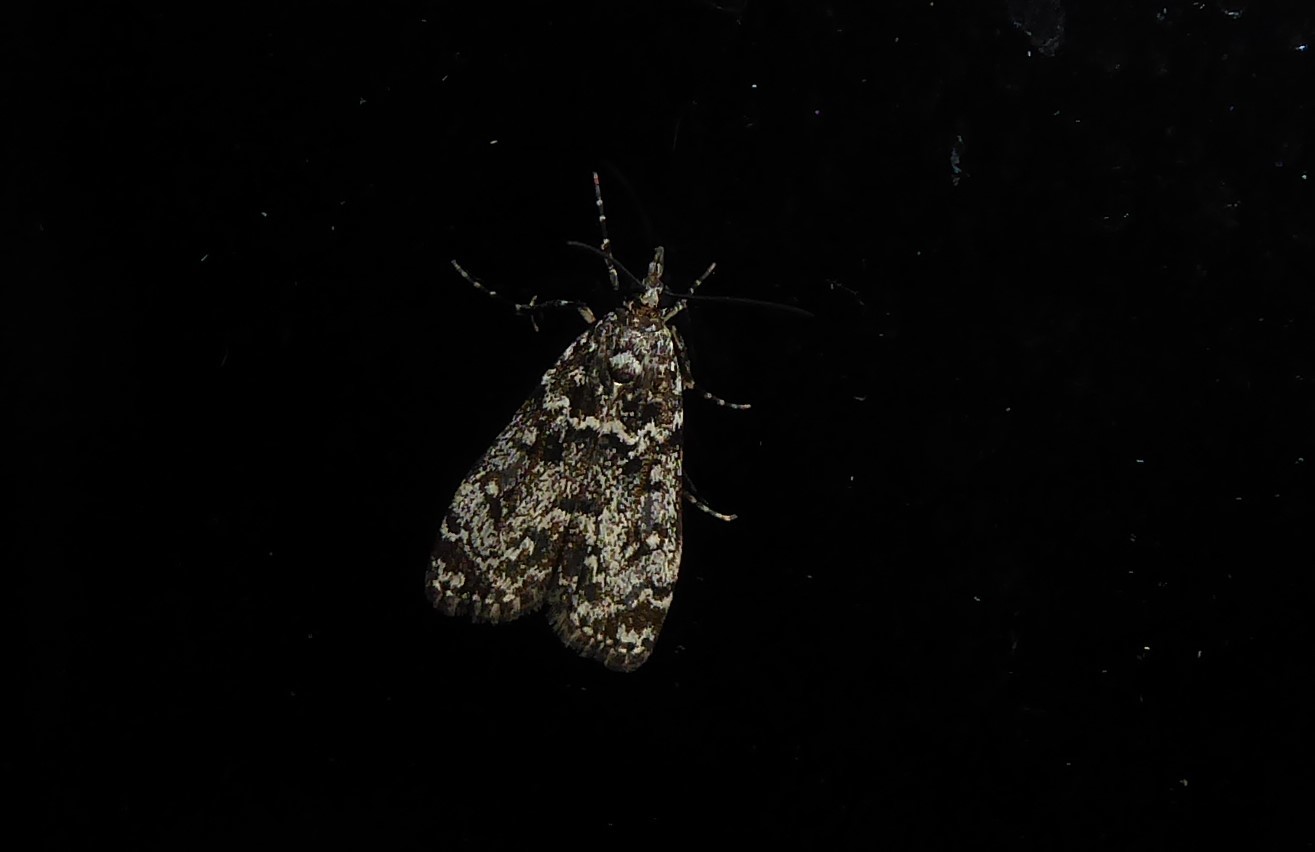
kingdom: Animalia
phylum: Arthropoda
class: Insecta
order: Lepidoptera
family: Crambidae
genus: Eudonia
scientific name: Eudonia philerga
